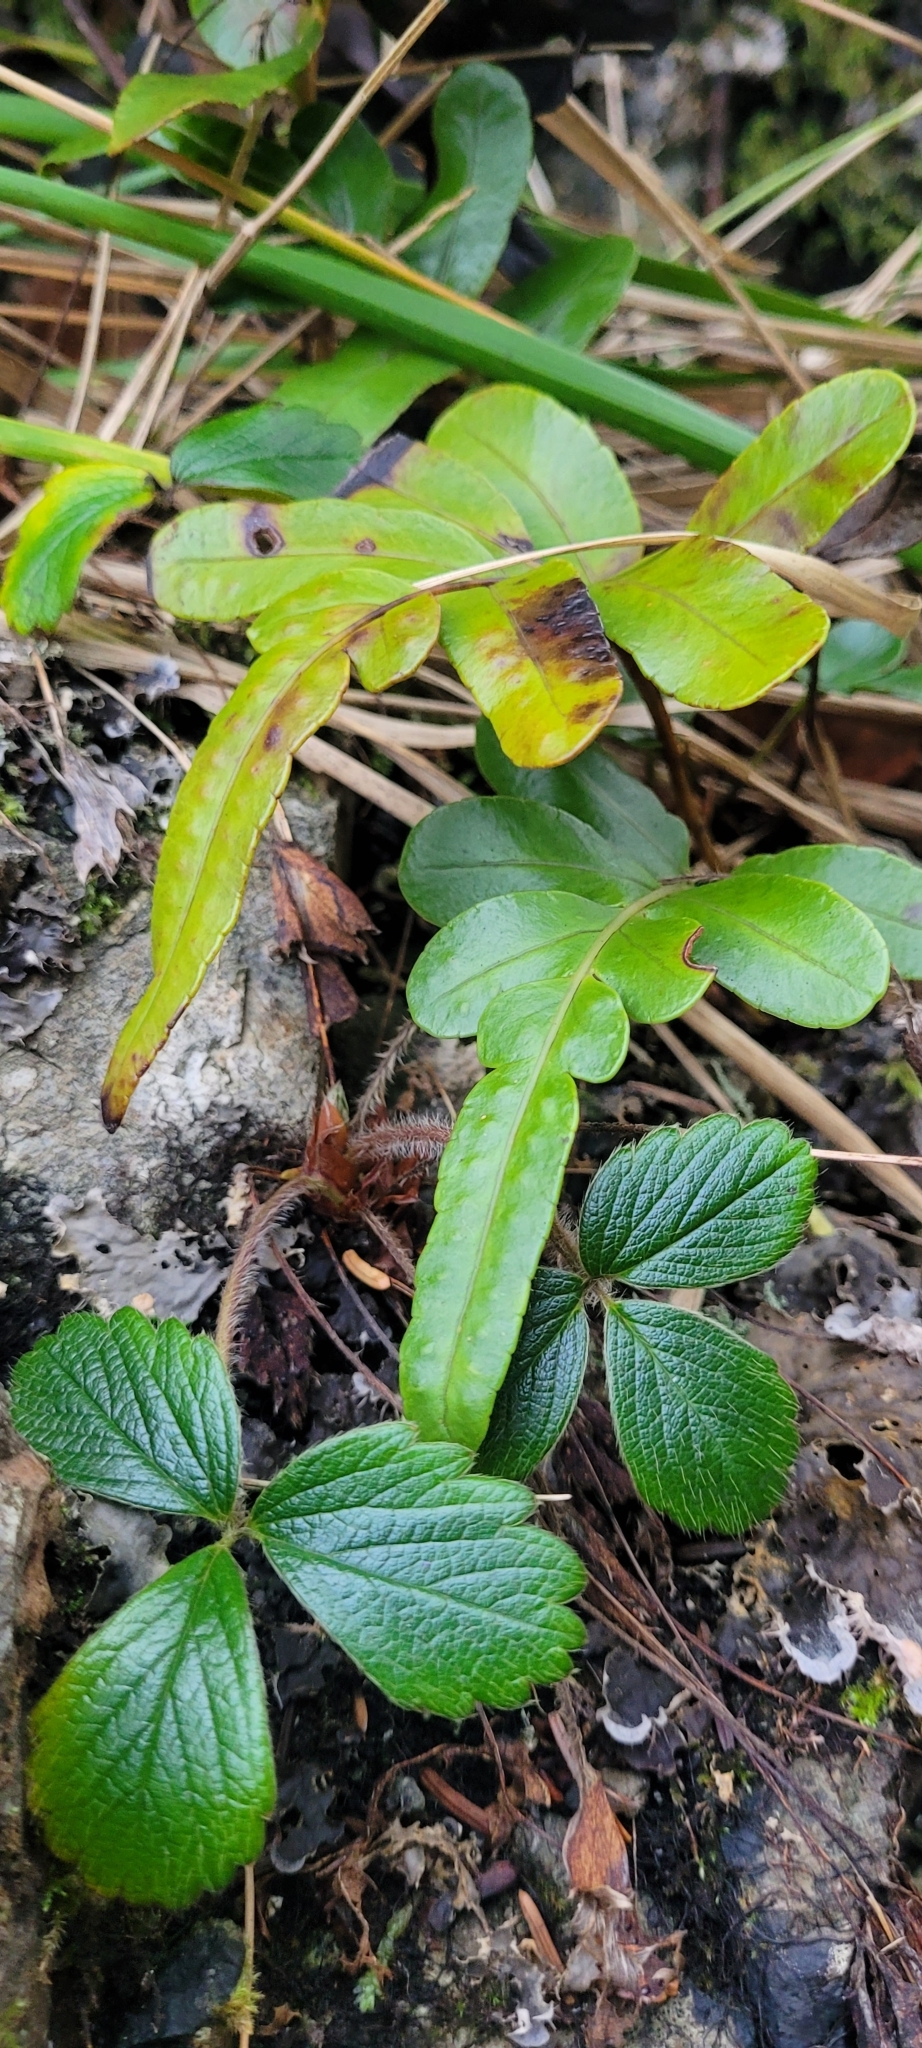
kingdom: Plantae
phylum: Tracheophyta
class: Polypodiopsida
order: Polypodiales
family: Polypodiaceae
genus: Polypodium
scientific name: Polypodium scouleri
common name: Scouler's polypody
